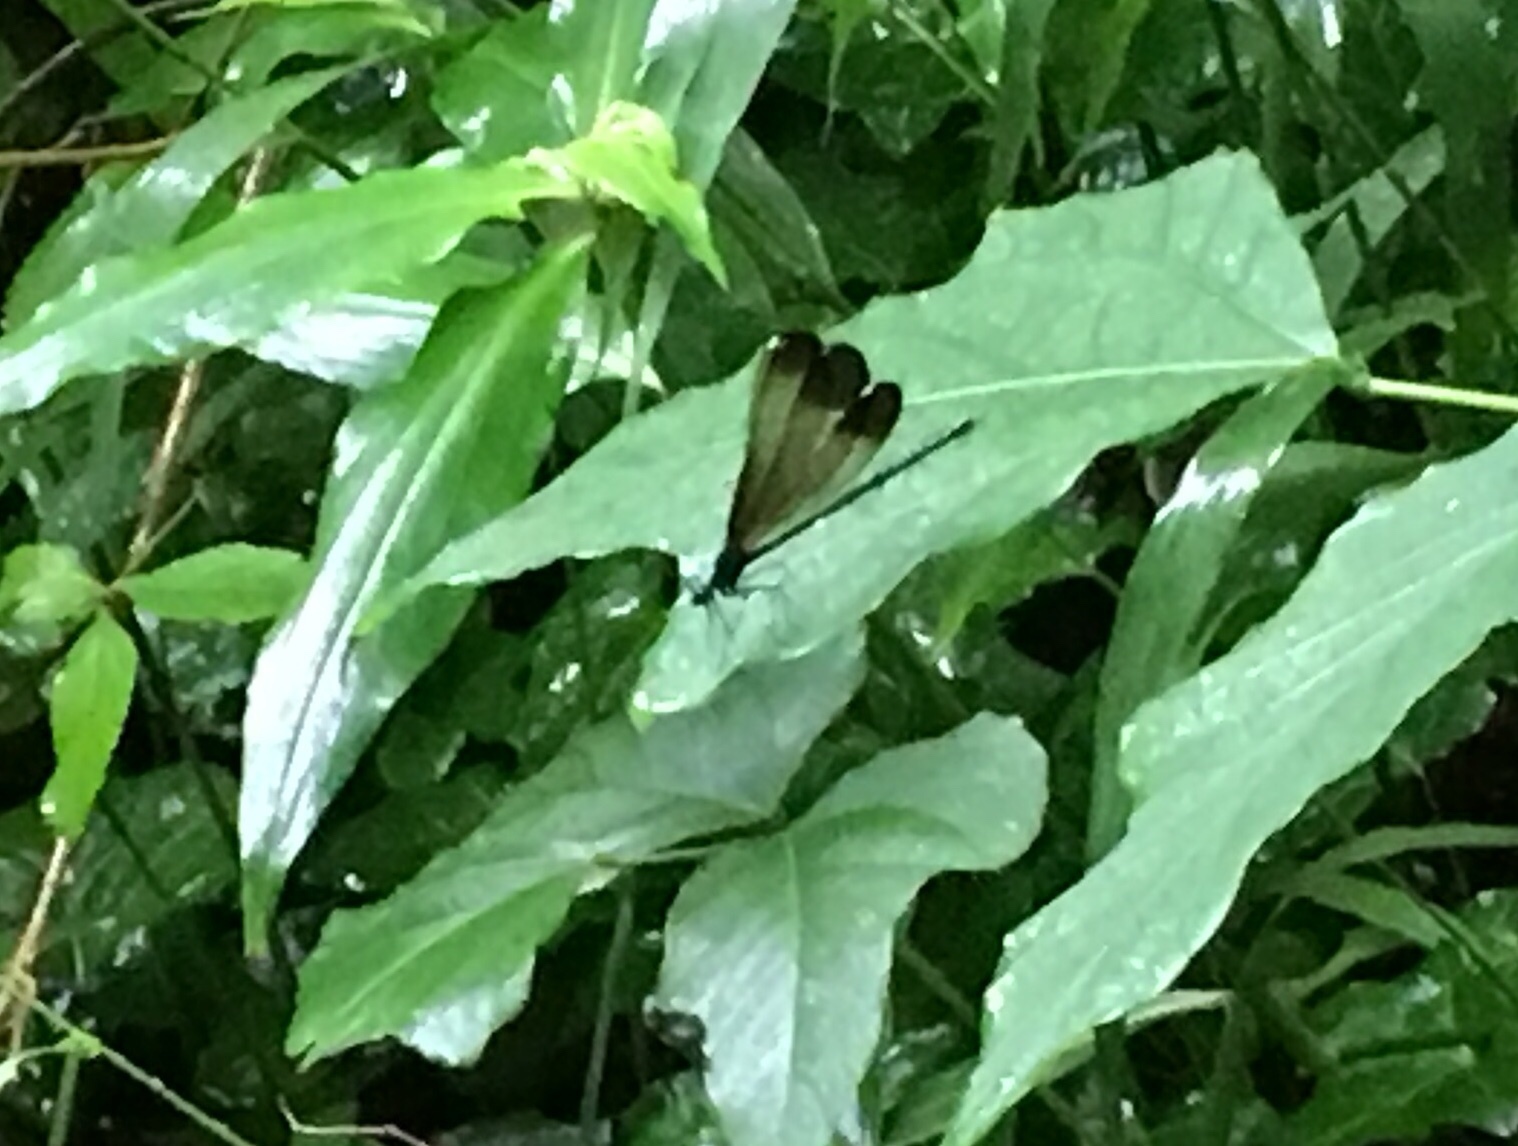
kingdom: Animalia
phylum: Arthropoda
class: Insecta
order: Odonata
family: Calopterygidae
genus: Calopteryx
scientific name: Calopteryx dimidiata
